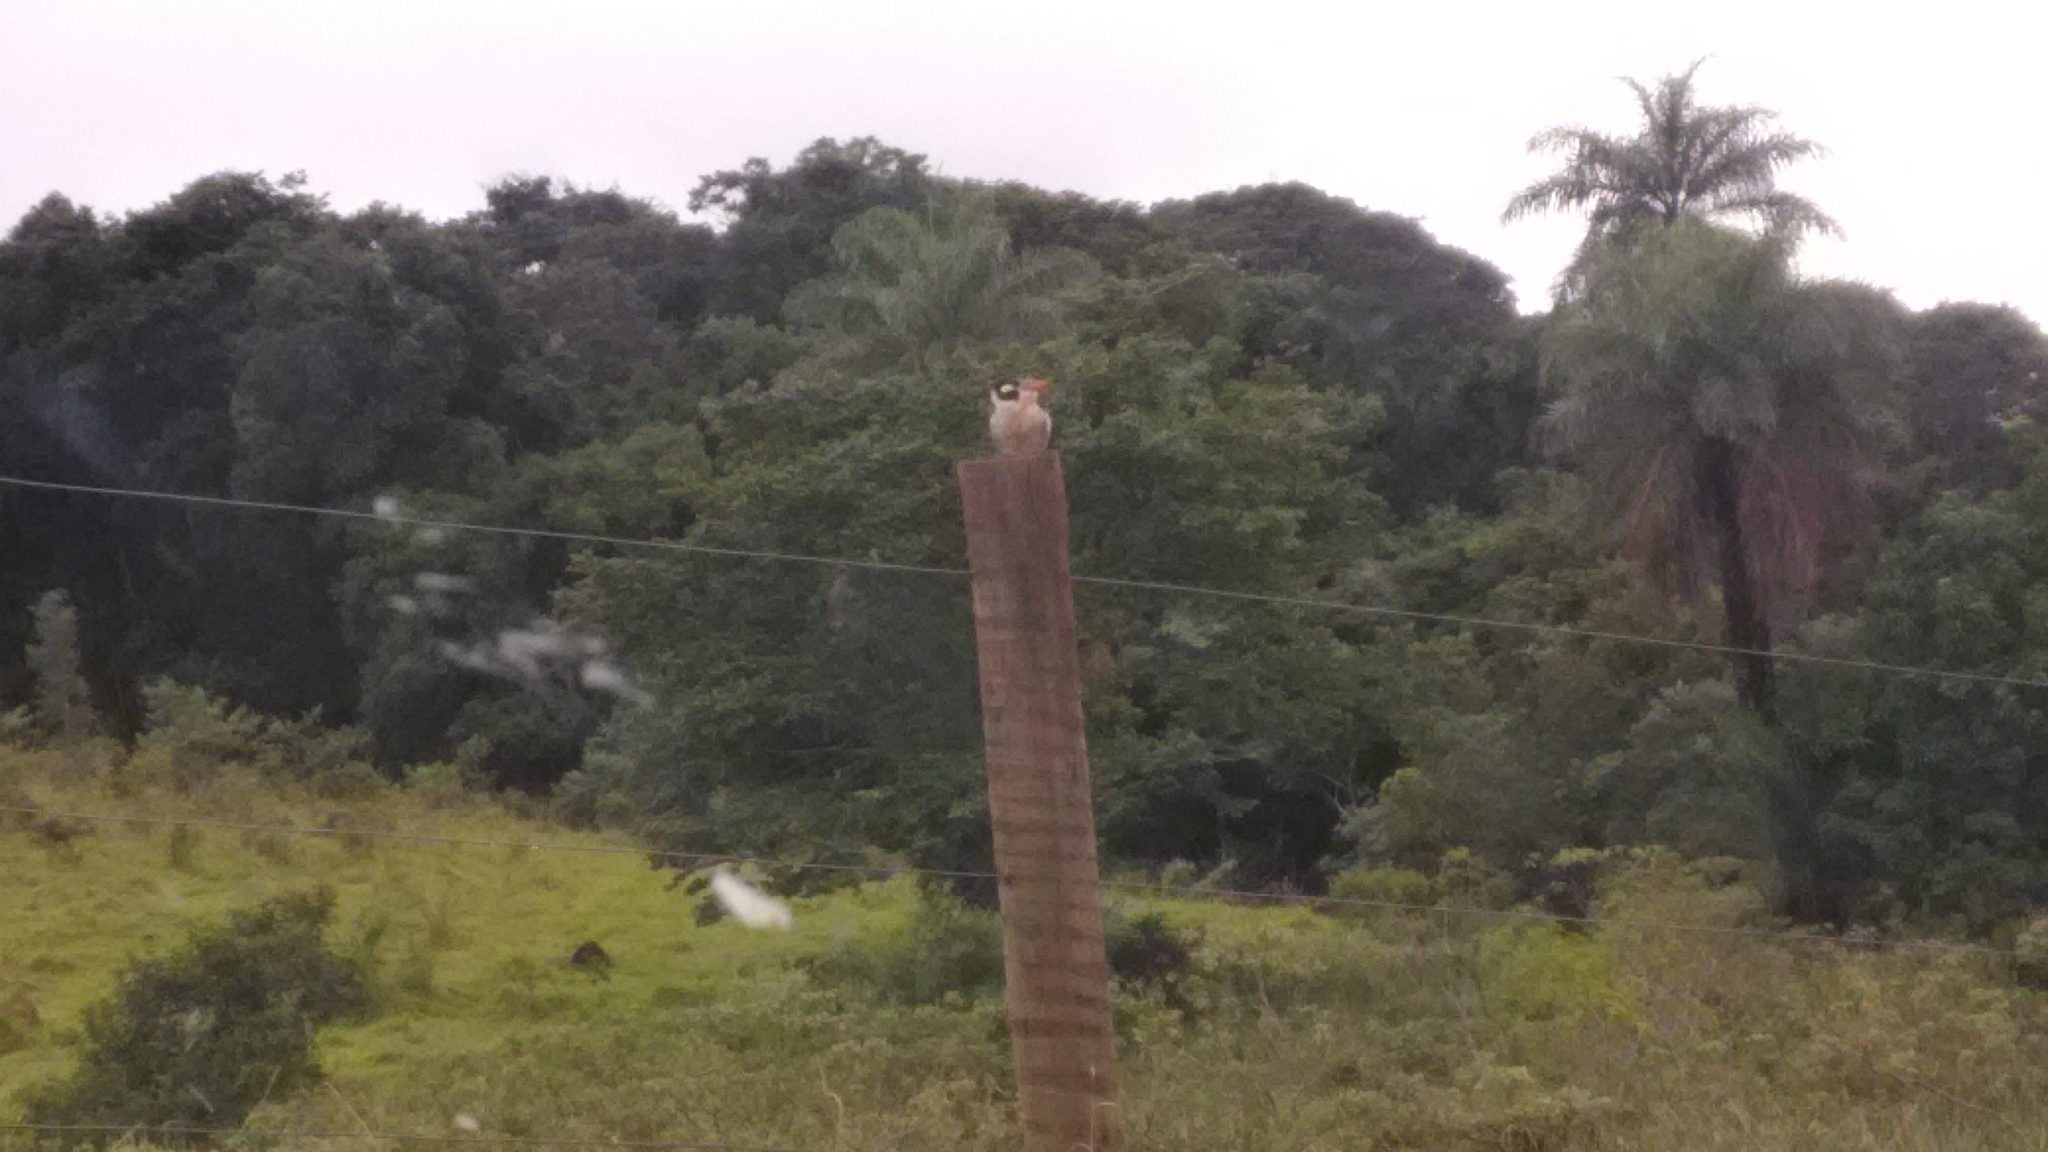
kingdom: Animalia
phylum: Chordata
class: Aves
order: Piciformes
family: Bucconidae
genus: Nystalus
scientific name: Nystalus chacuru
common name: White-eared puffbird
